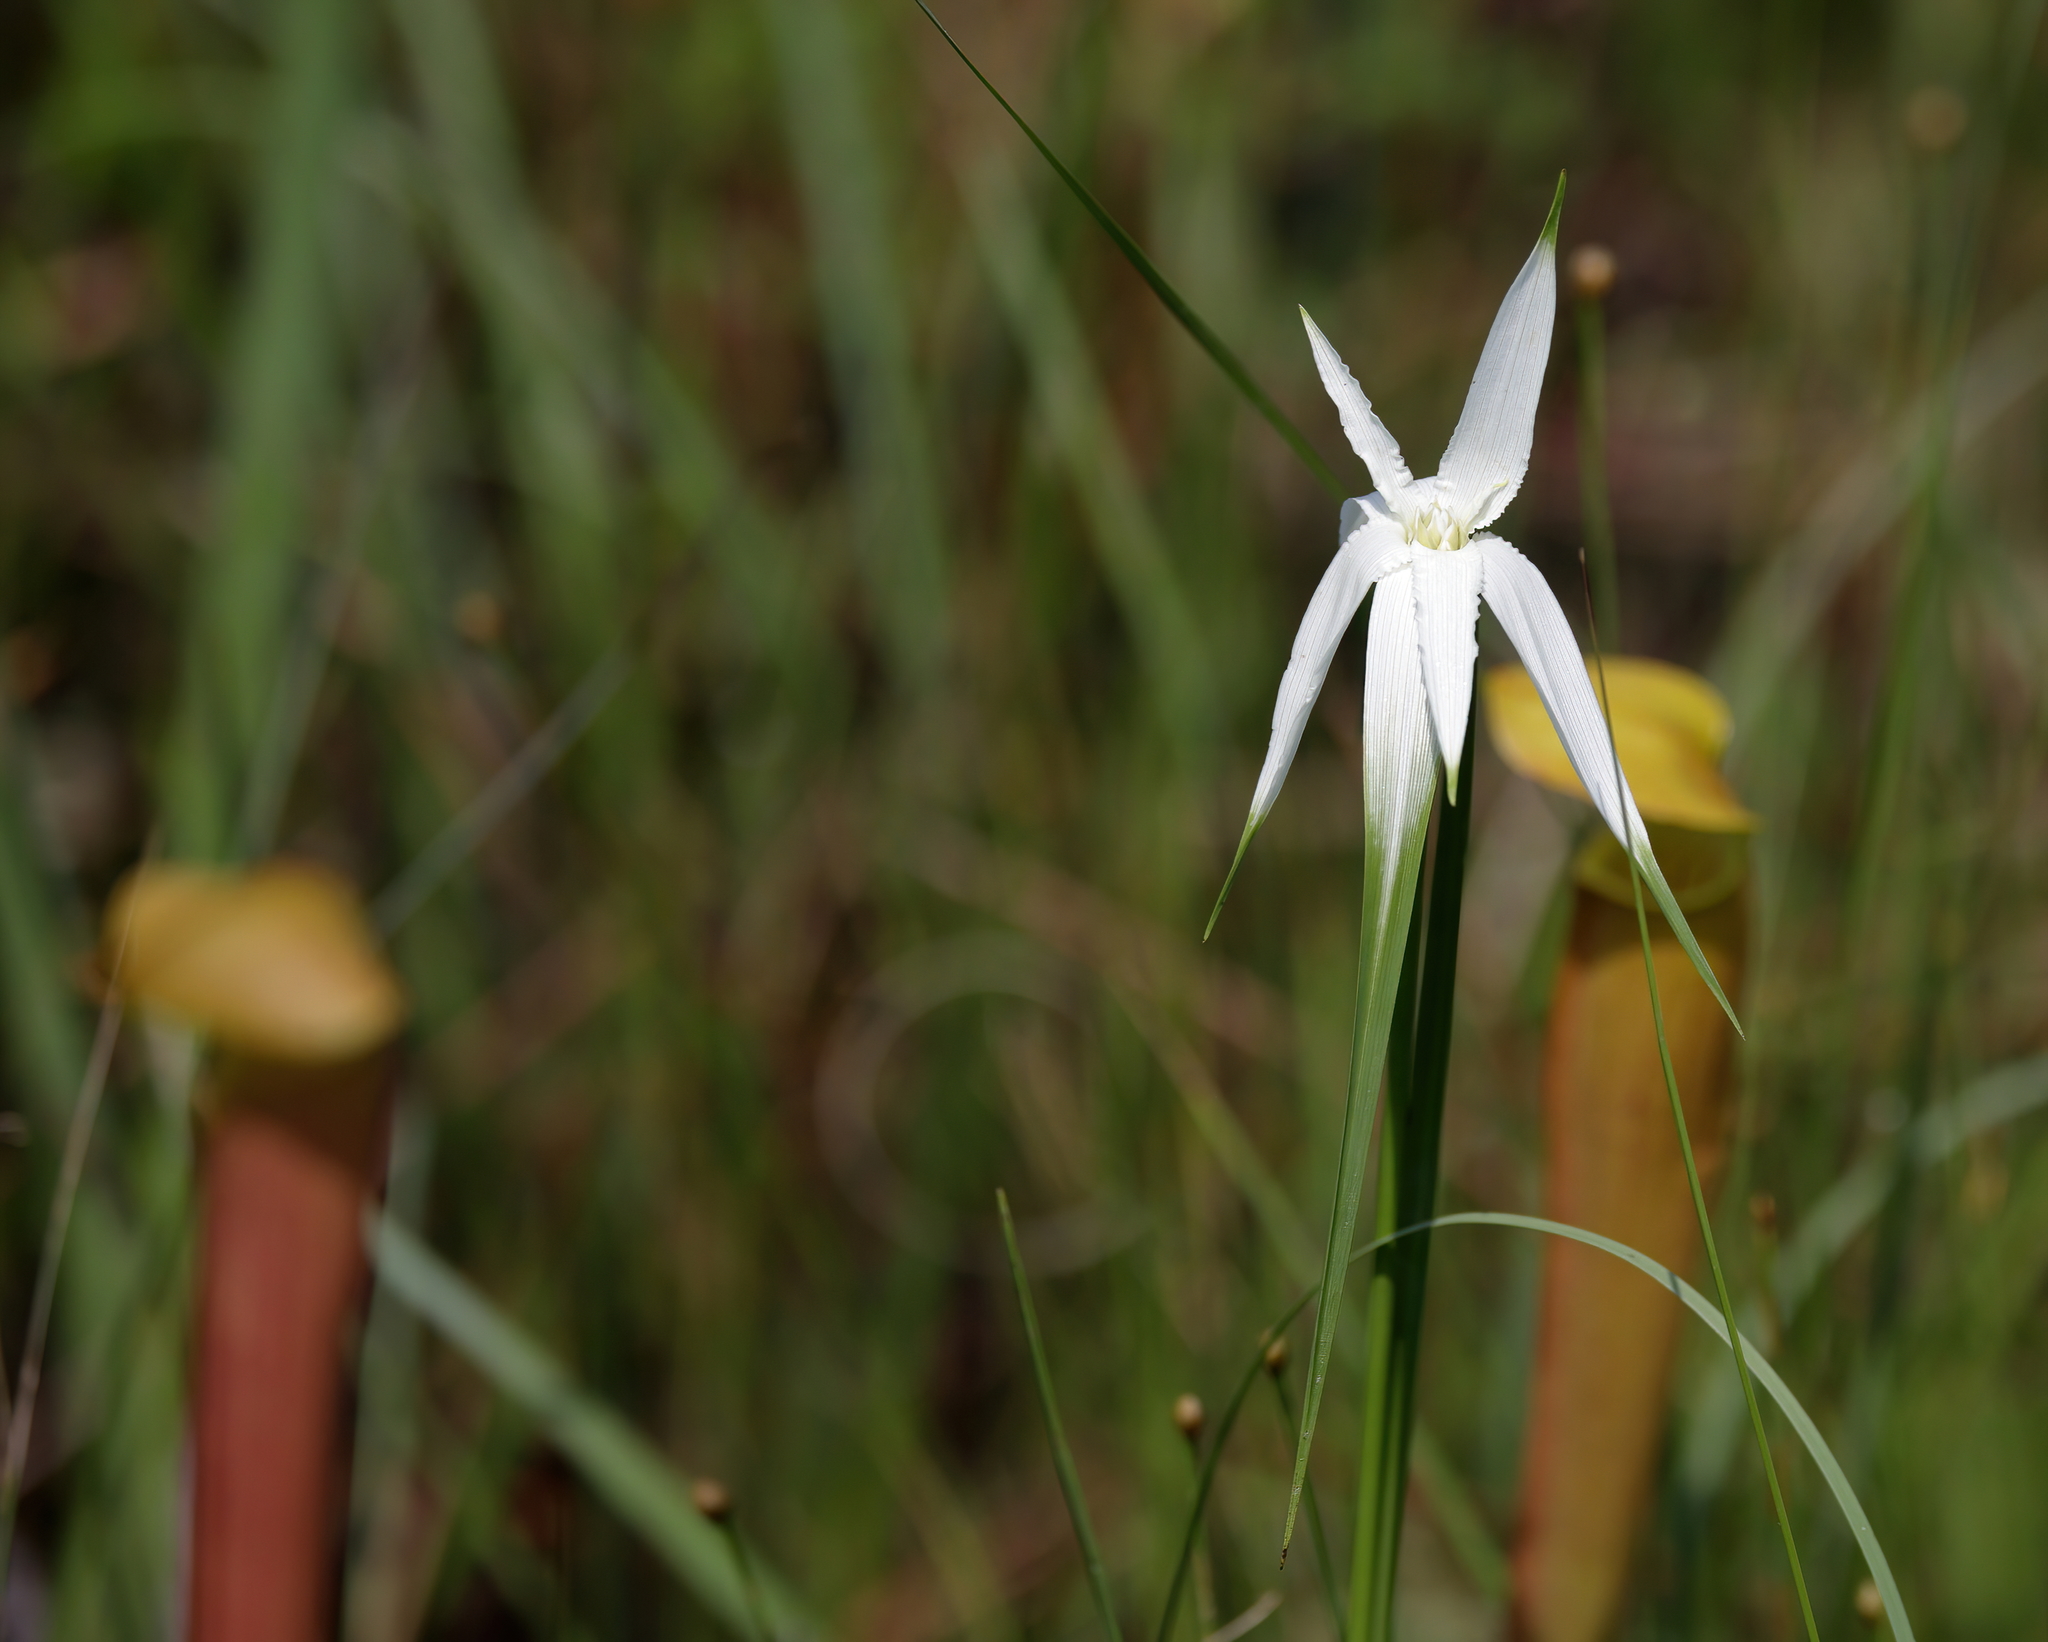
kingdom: Plantae
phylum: Tracheophyta
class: Liliopsida
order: Poales
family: Cyperaceae
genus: Rhynchospora
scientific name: Rhynchospora latifolia
